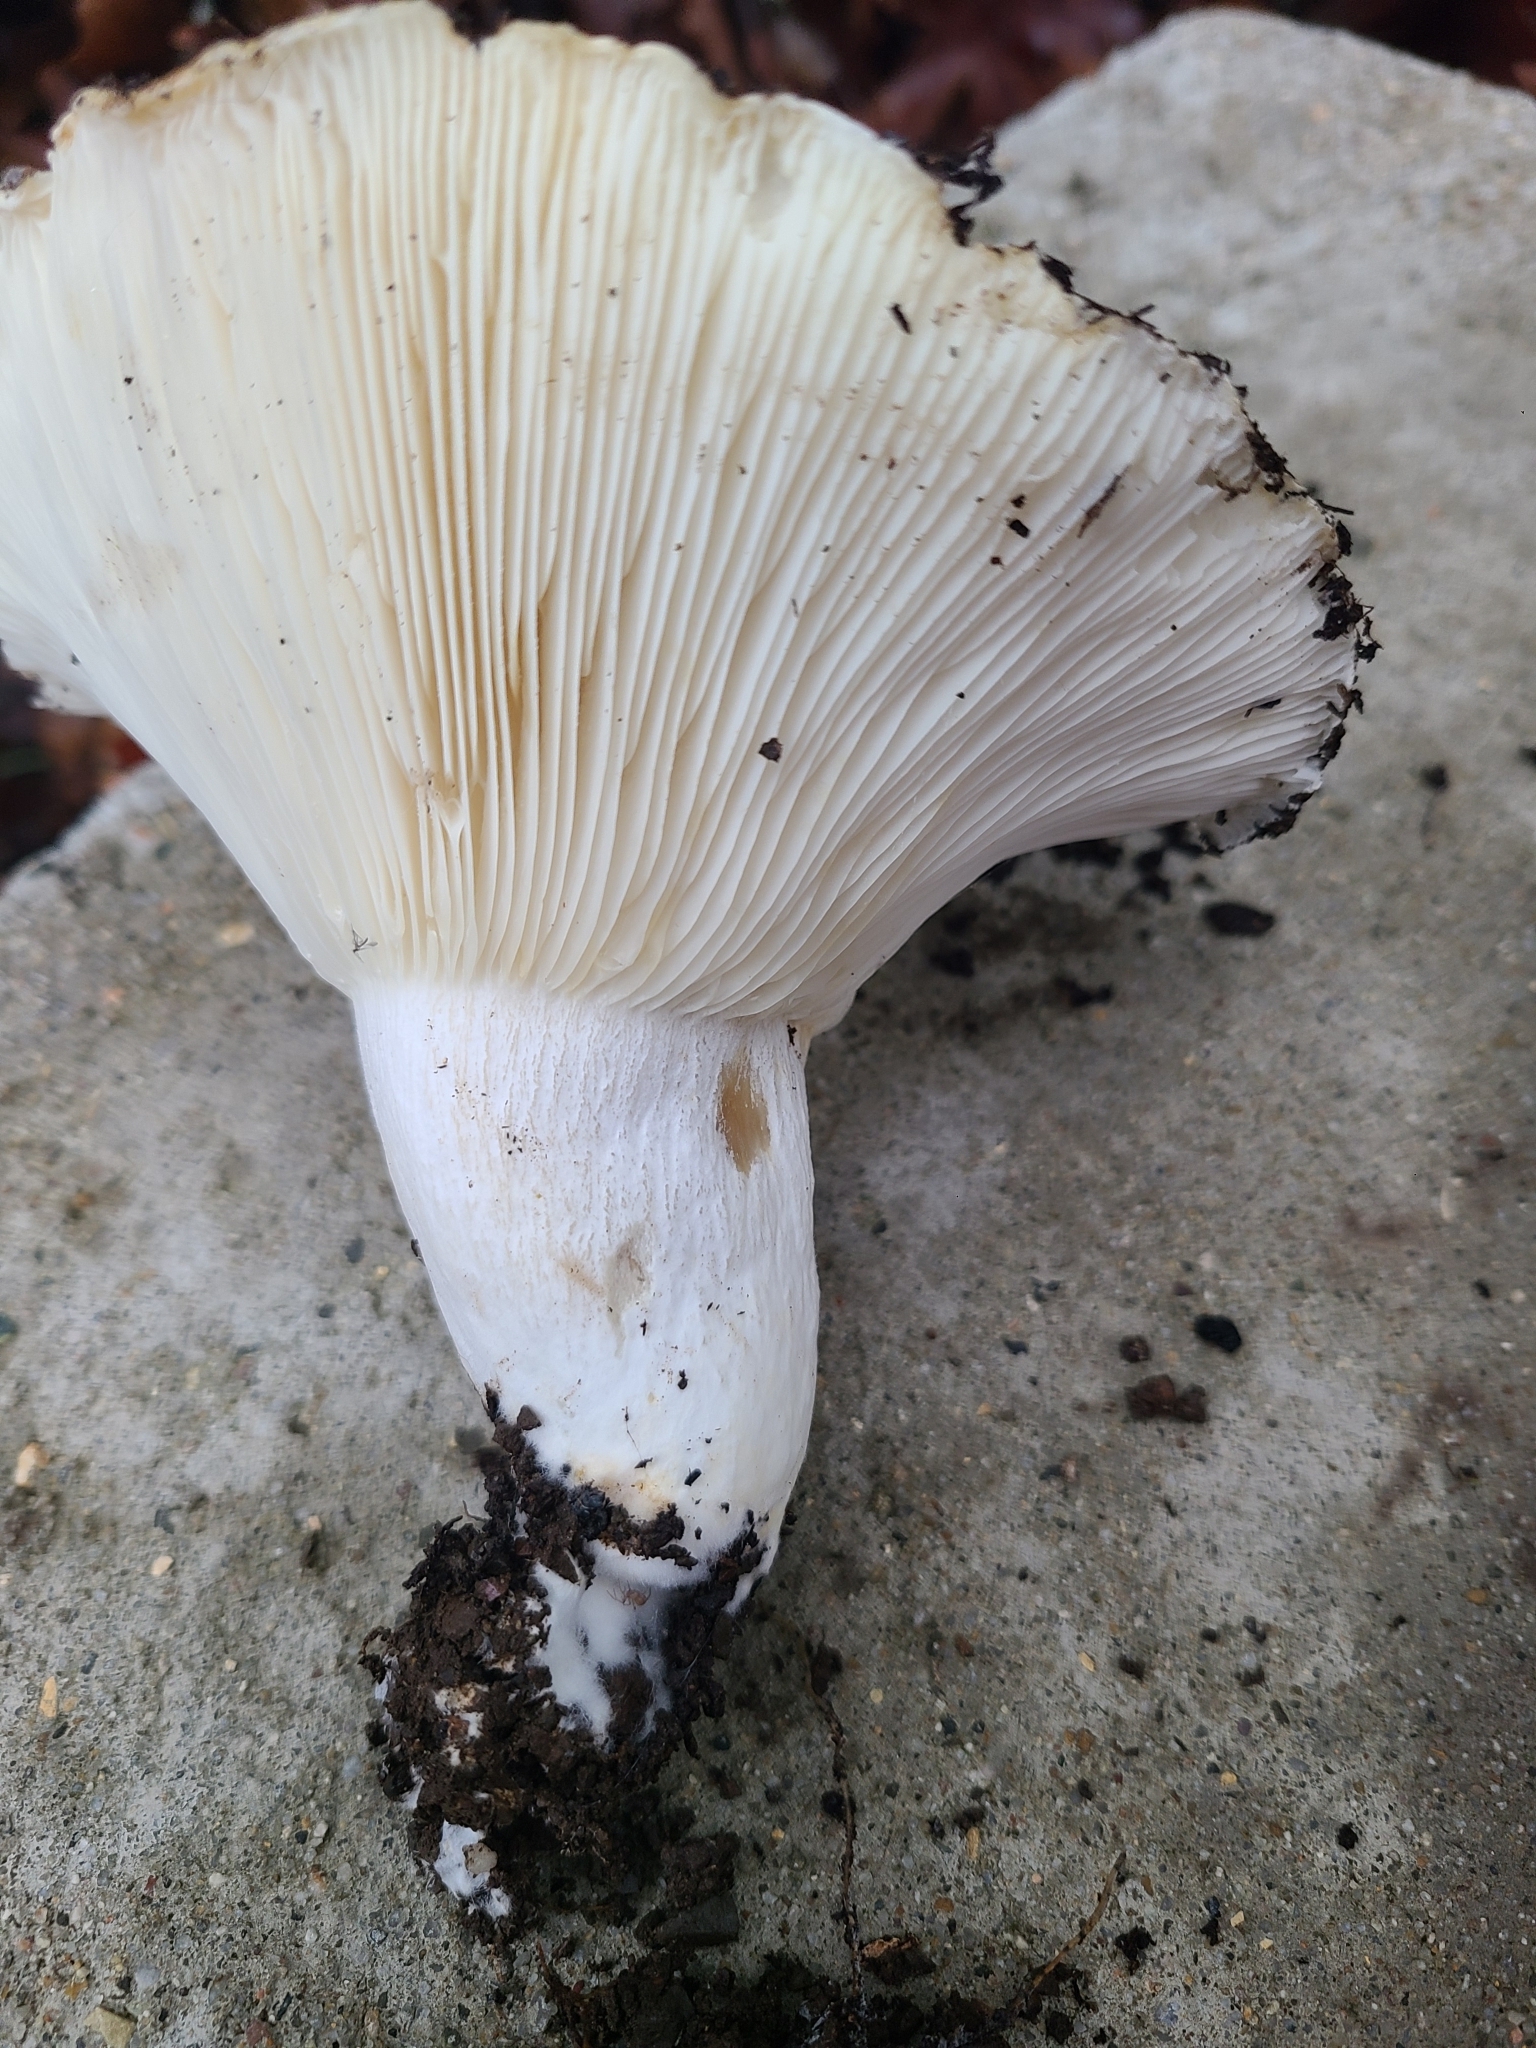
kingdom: Fungi
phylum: Basidiomycota
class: Agaricomycetes
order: Russulales
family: Russulaceae
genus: Russula
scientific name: Russula brevipes
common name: Short-stemmed russula
